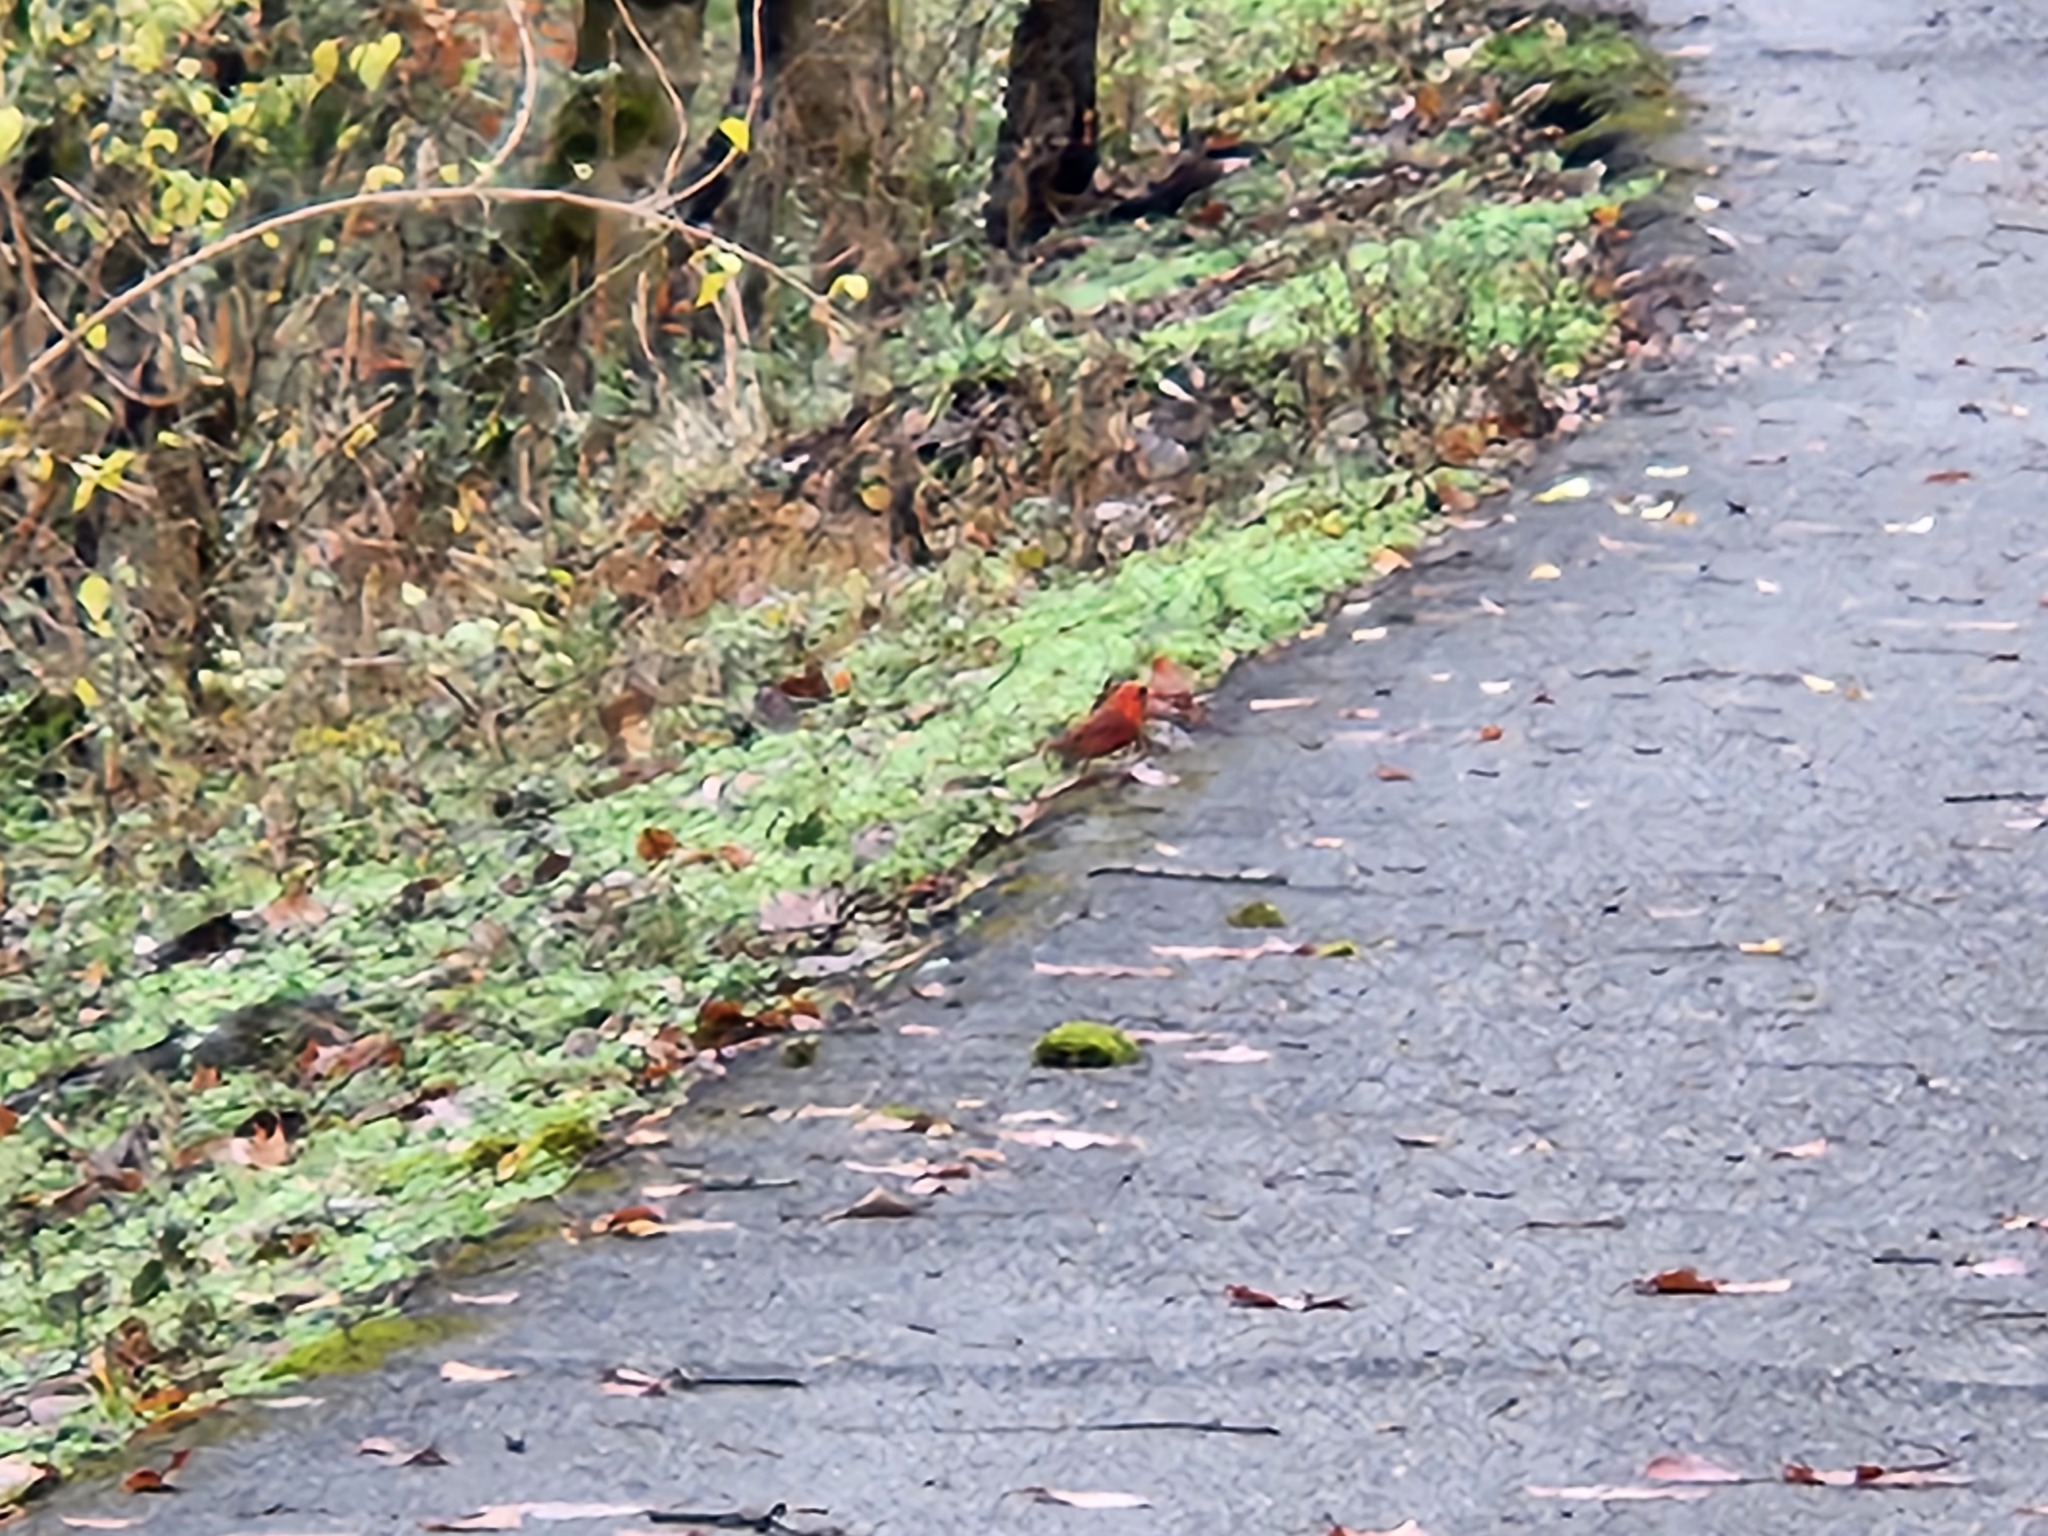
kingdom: Animalia
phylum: Chordata
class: Aves
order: Passeriformes
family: Cardinalidae
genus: Cardinalis
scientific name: Cardinalis cardinalis
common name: Northern cardinal
